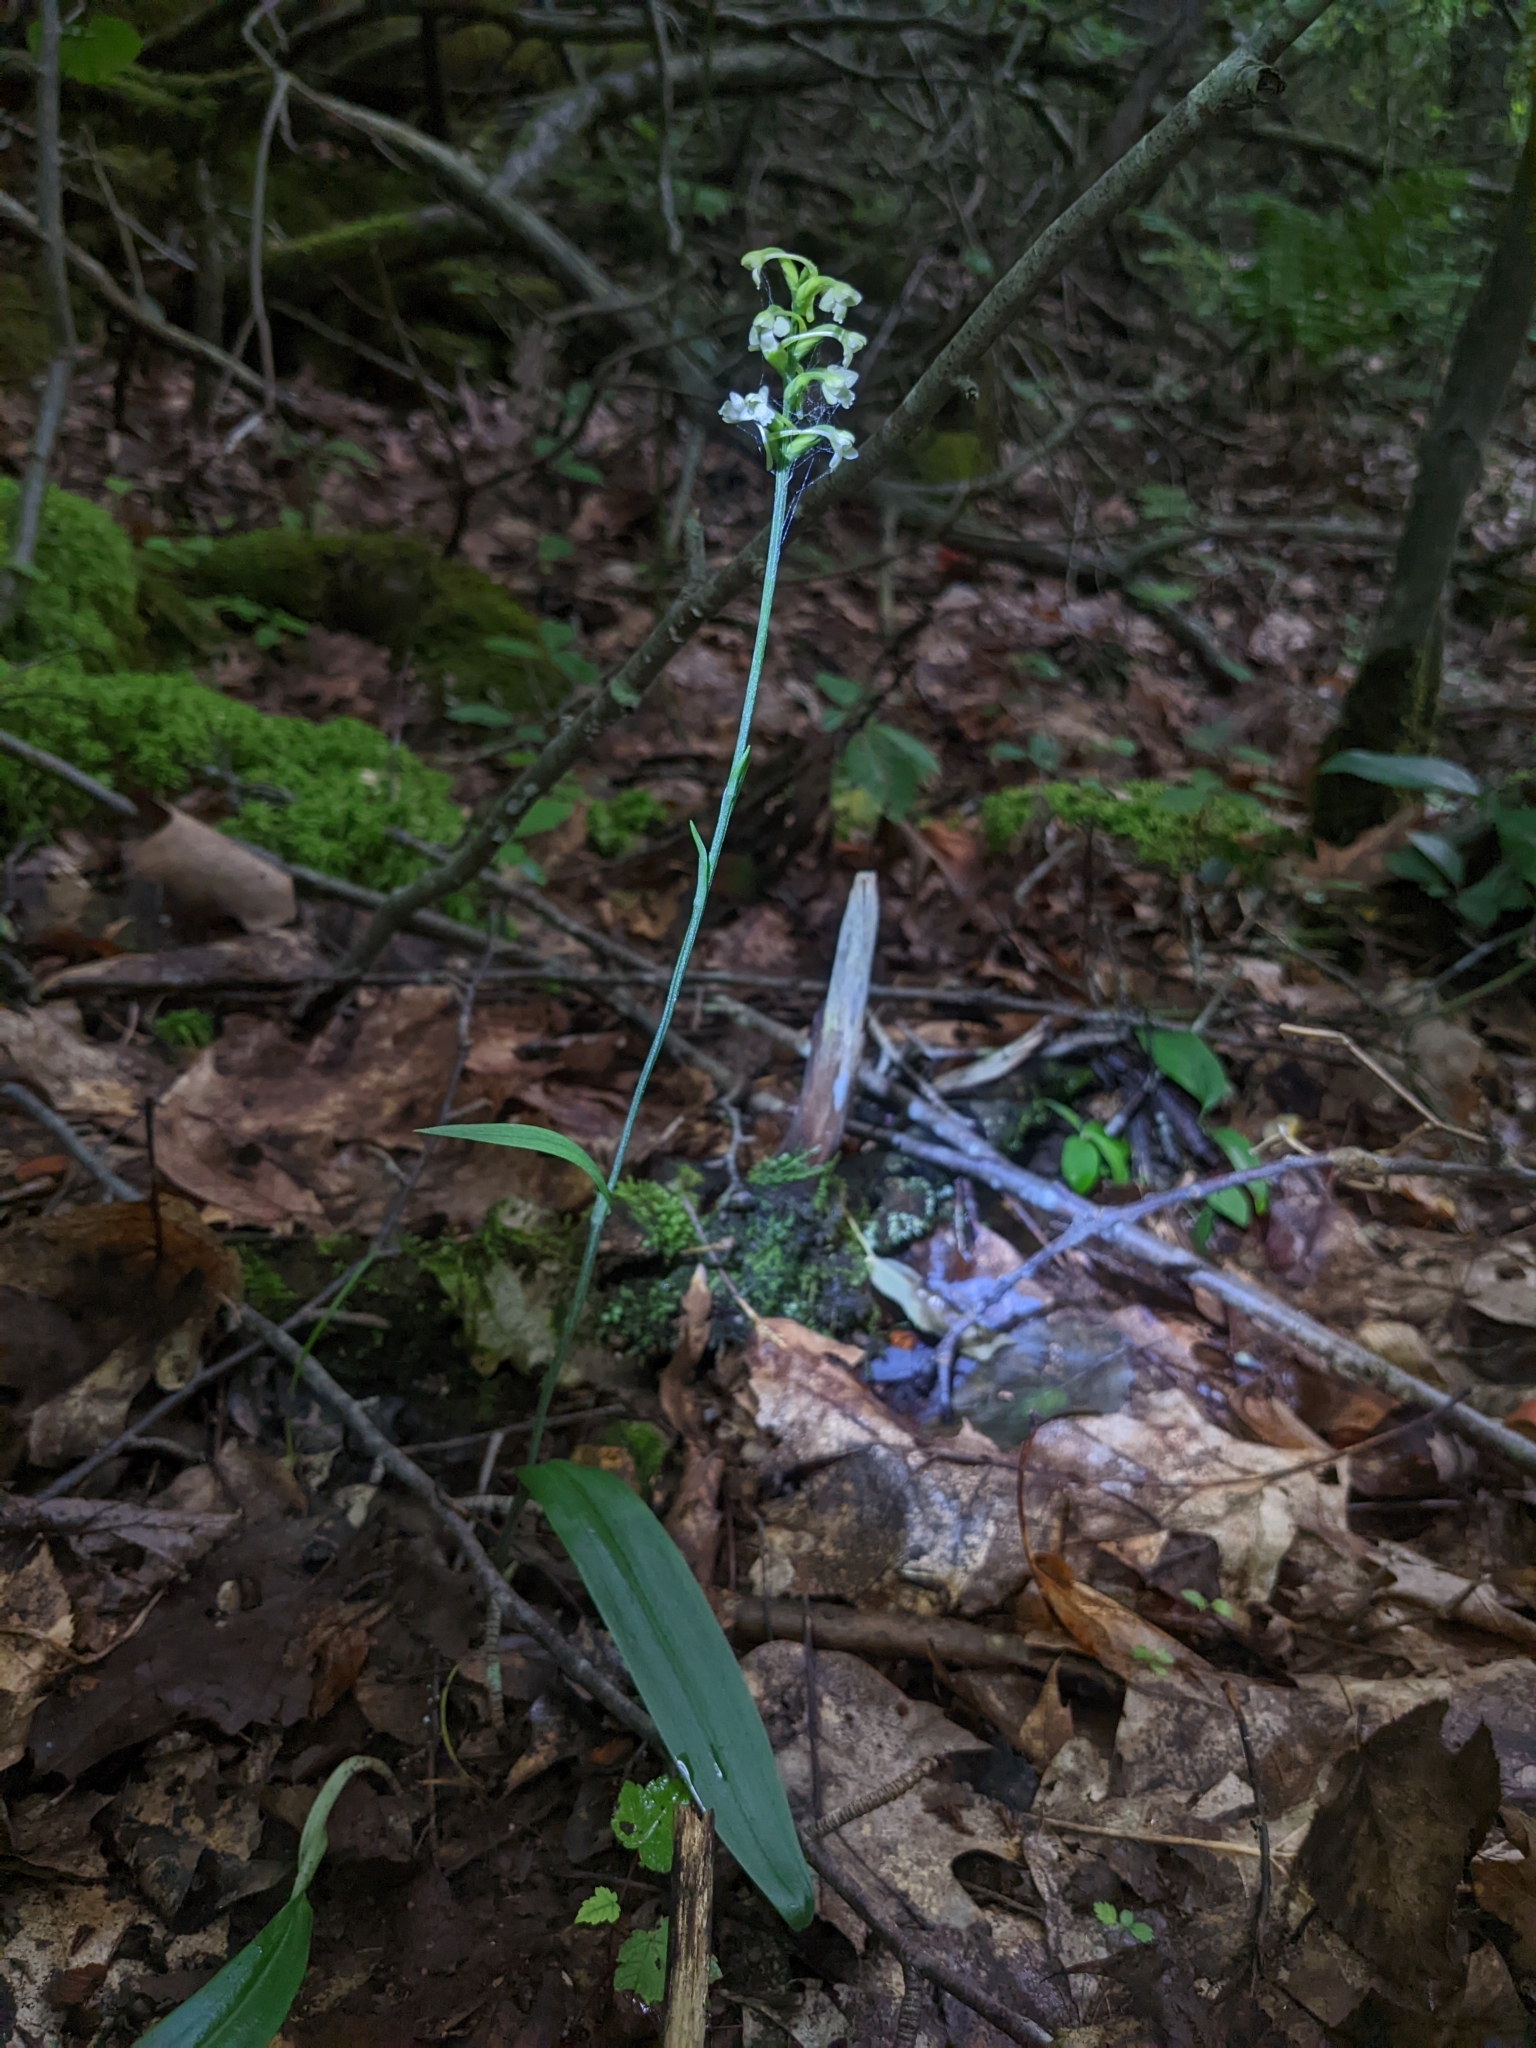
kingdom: Plantae
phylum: Tracheophyta
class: Liliopsida
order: Asparagales
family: Orchidaceae
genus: Platanthera
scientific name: Platanthera clavellata
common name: Club-spur orchid
